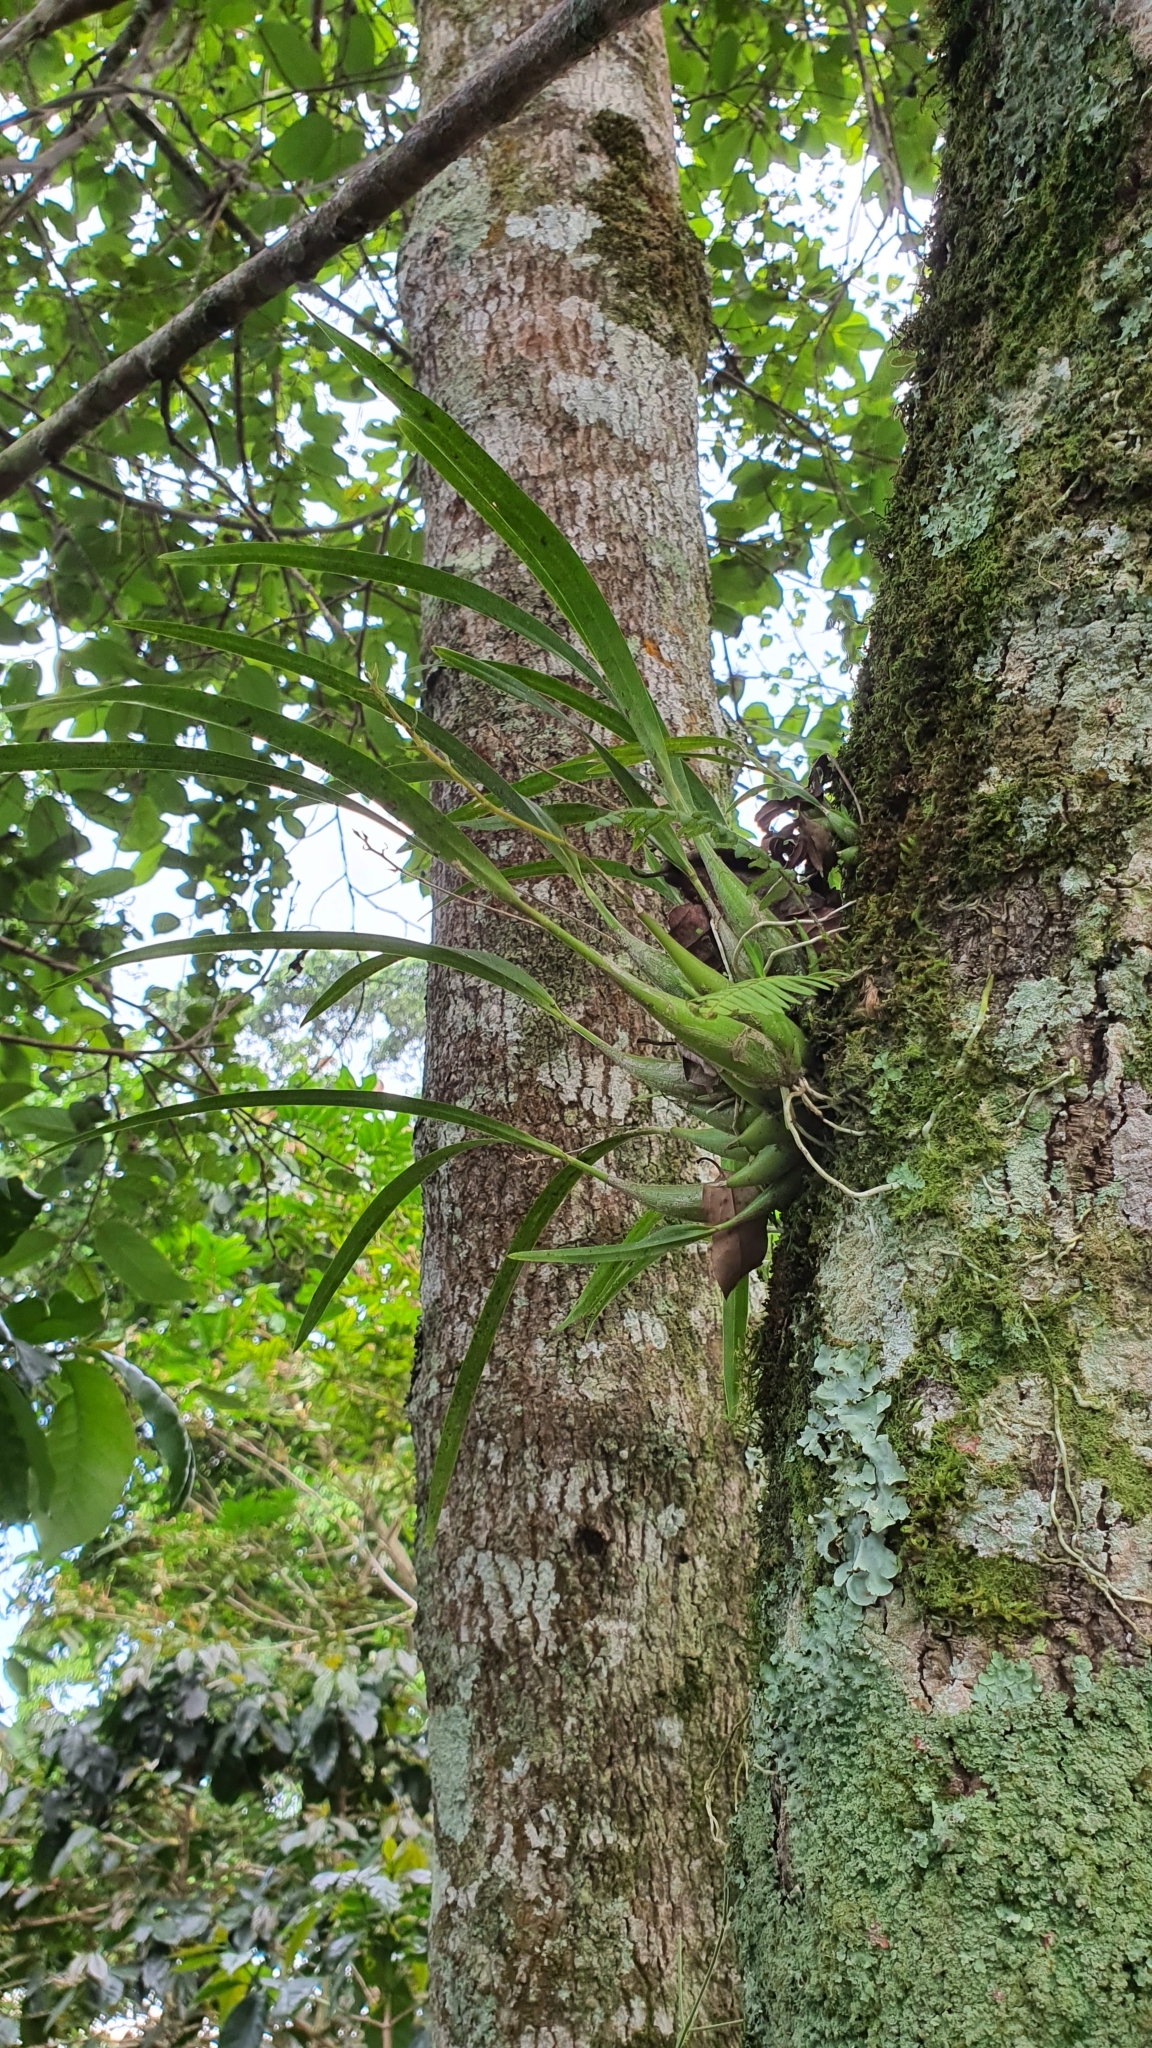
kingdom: Plantae
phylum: Tracheophyta
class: Liliopsida
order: Asparagales
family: Orchidaceae
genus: Prosthechea
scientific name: Prosthechea ochracea
